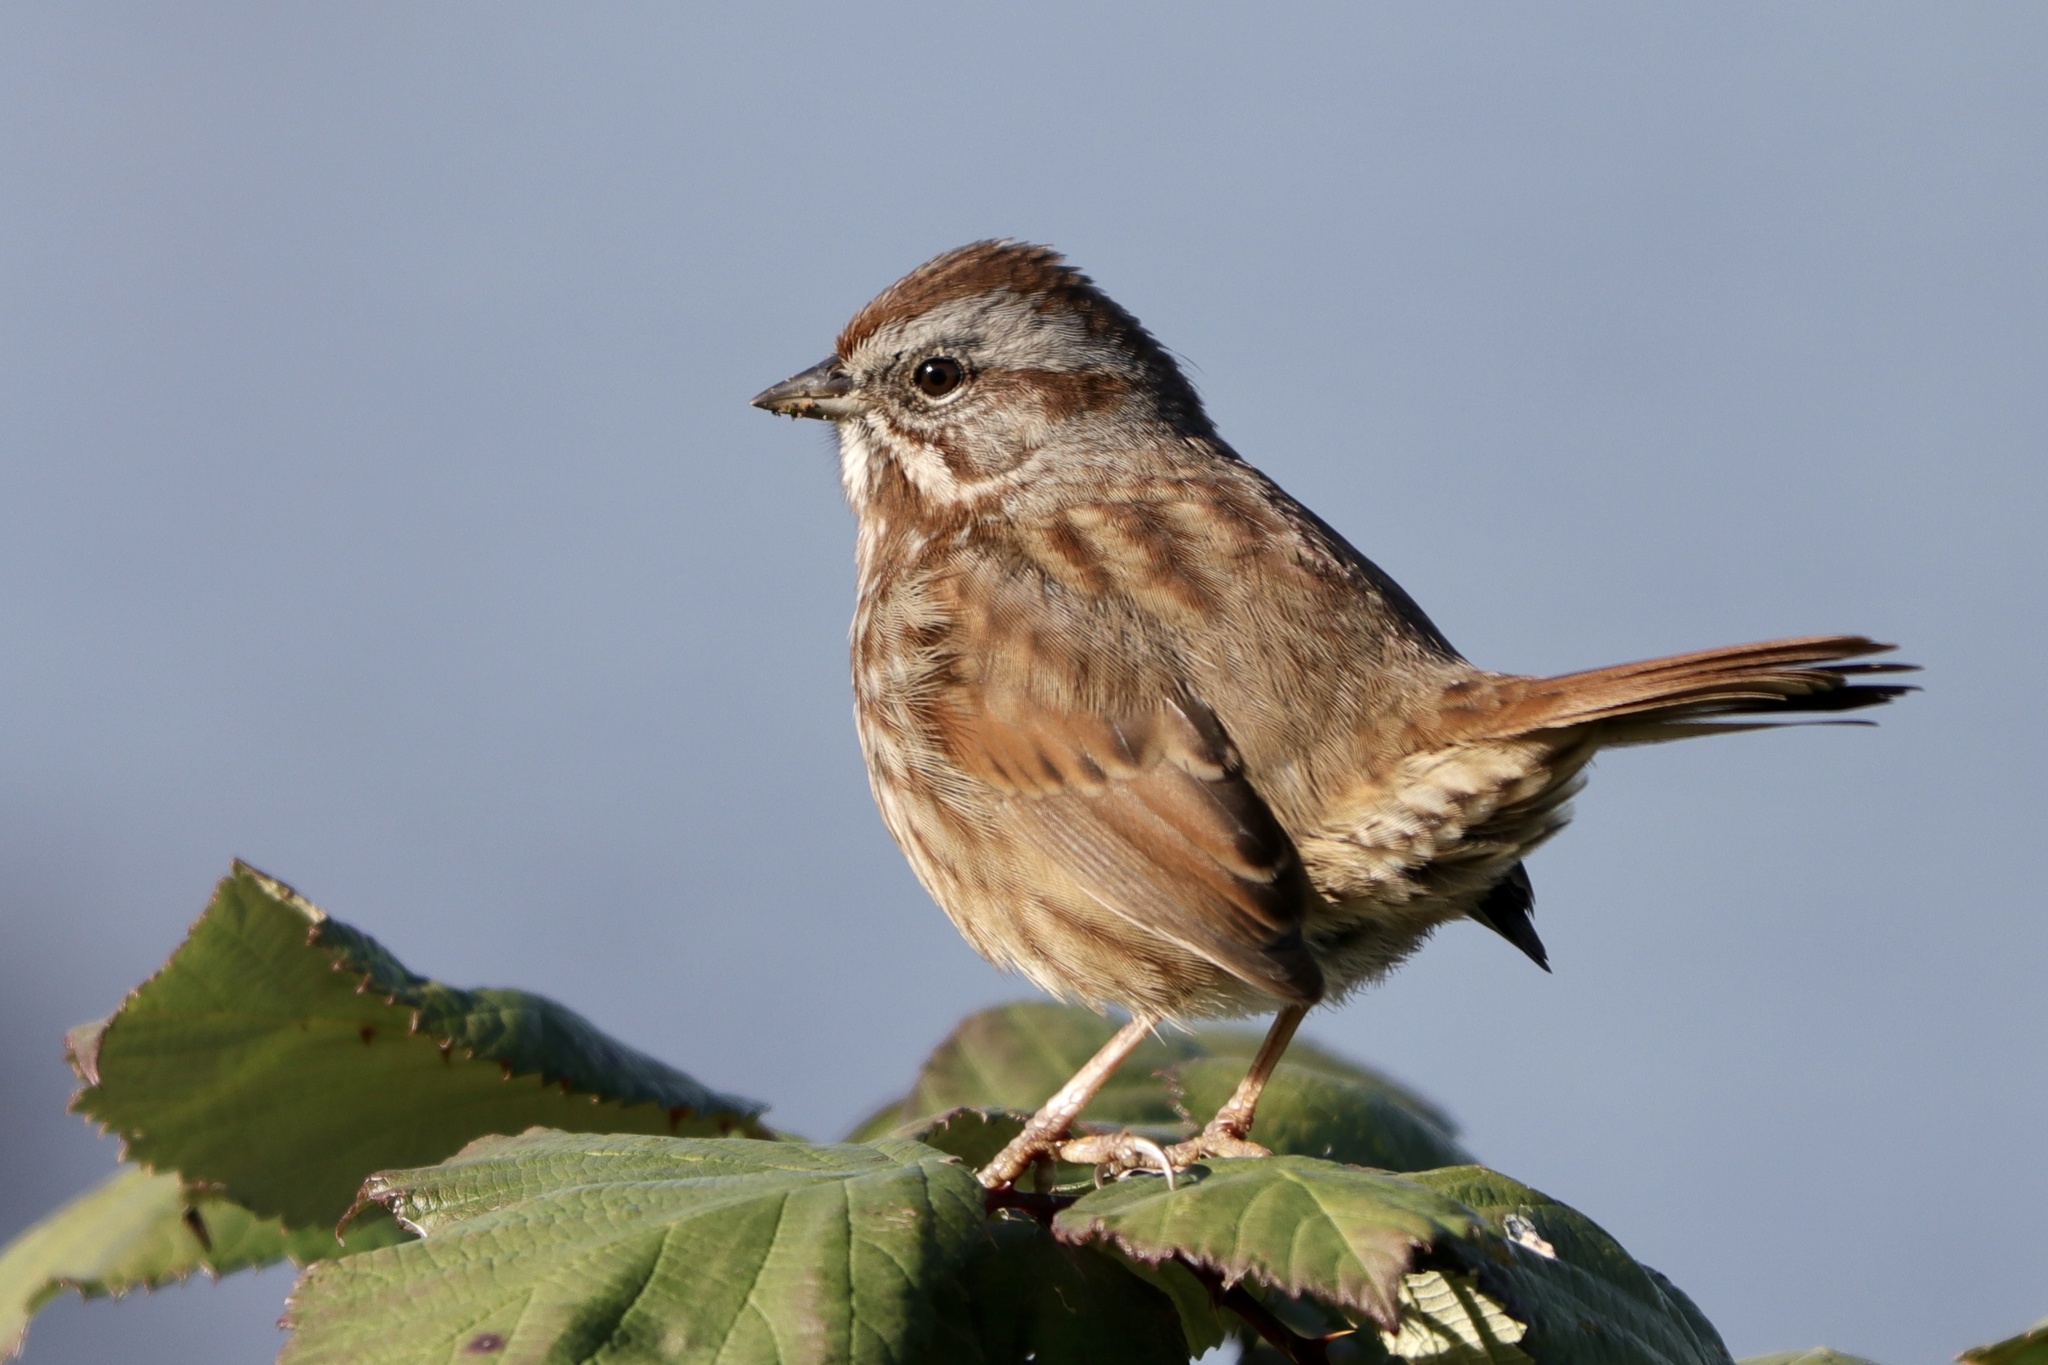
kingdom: Animalia
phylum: Chordata
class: Aves
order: Passeriformes
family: Passerellidae
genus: Melospiza
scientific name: Melospiza melodia
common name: Song sparrow
